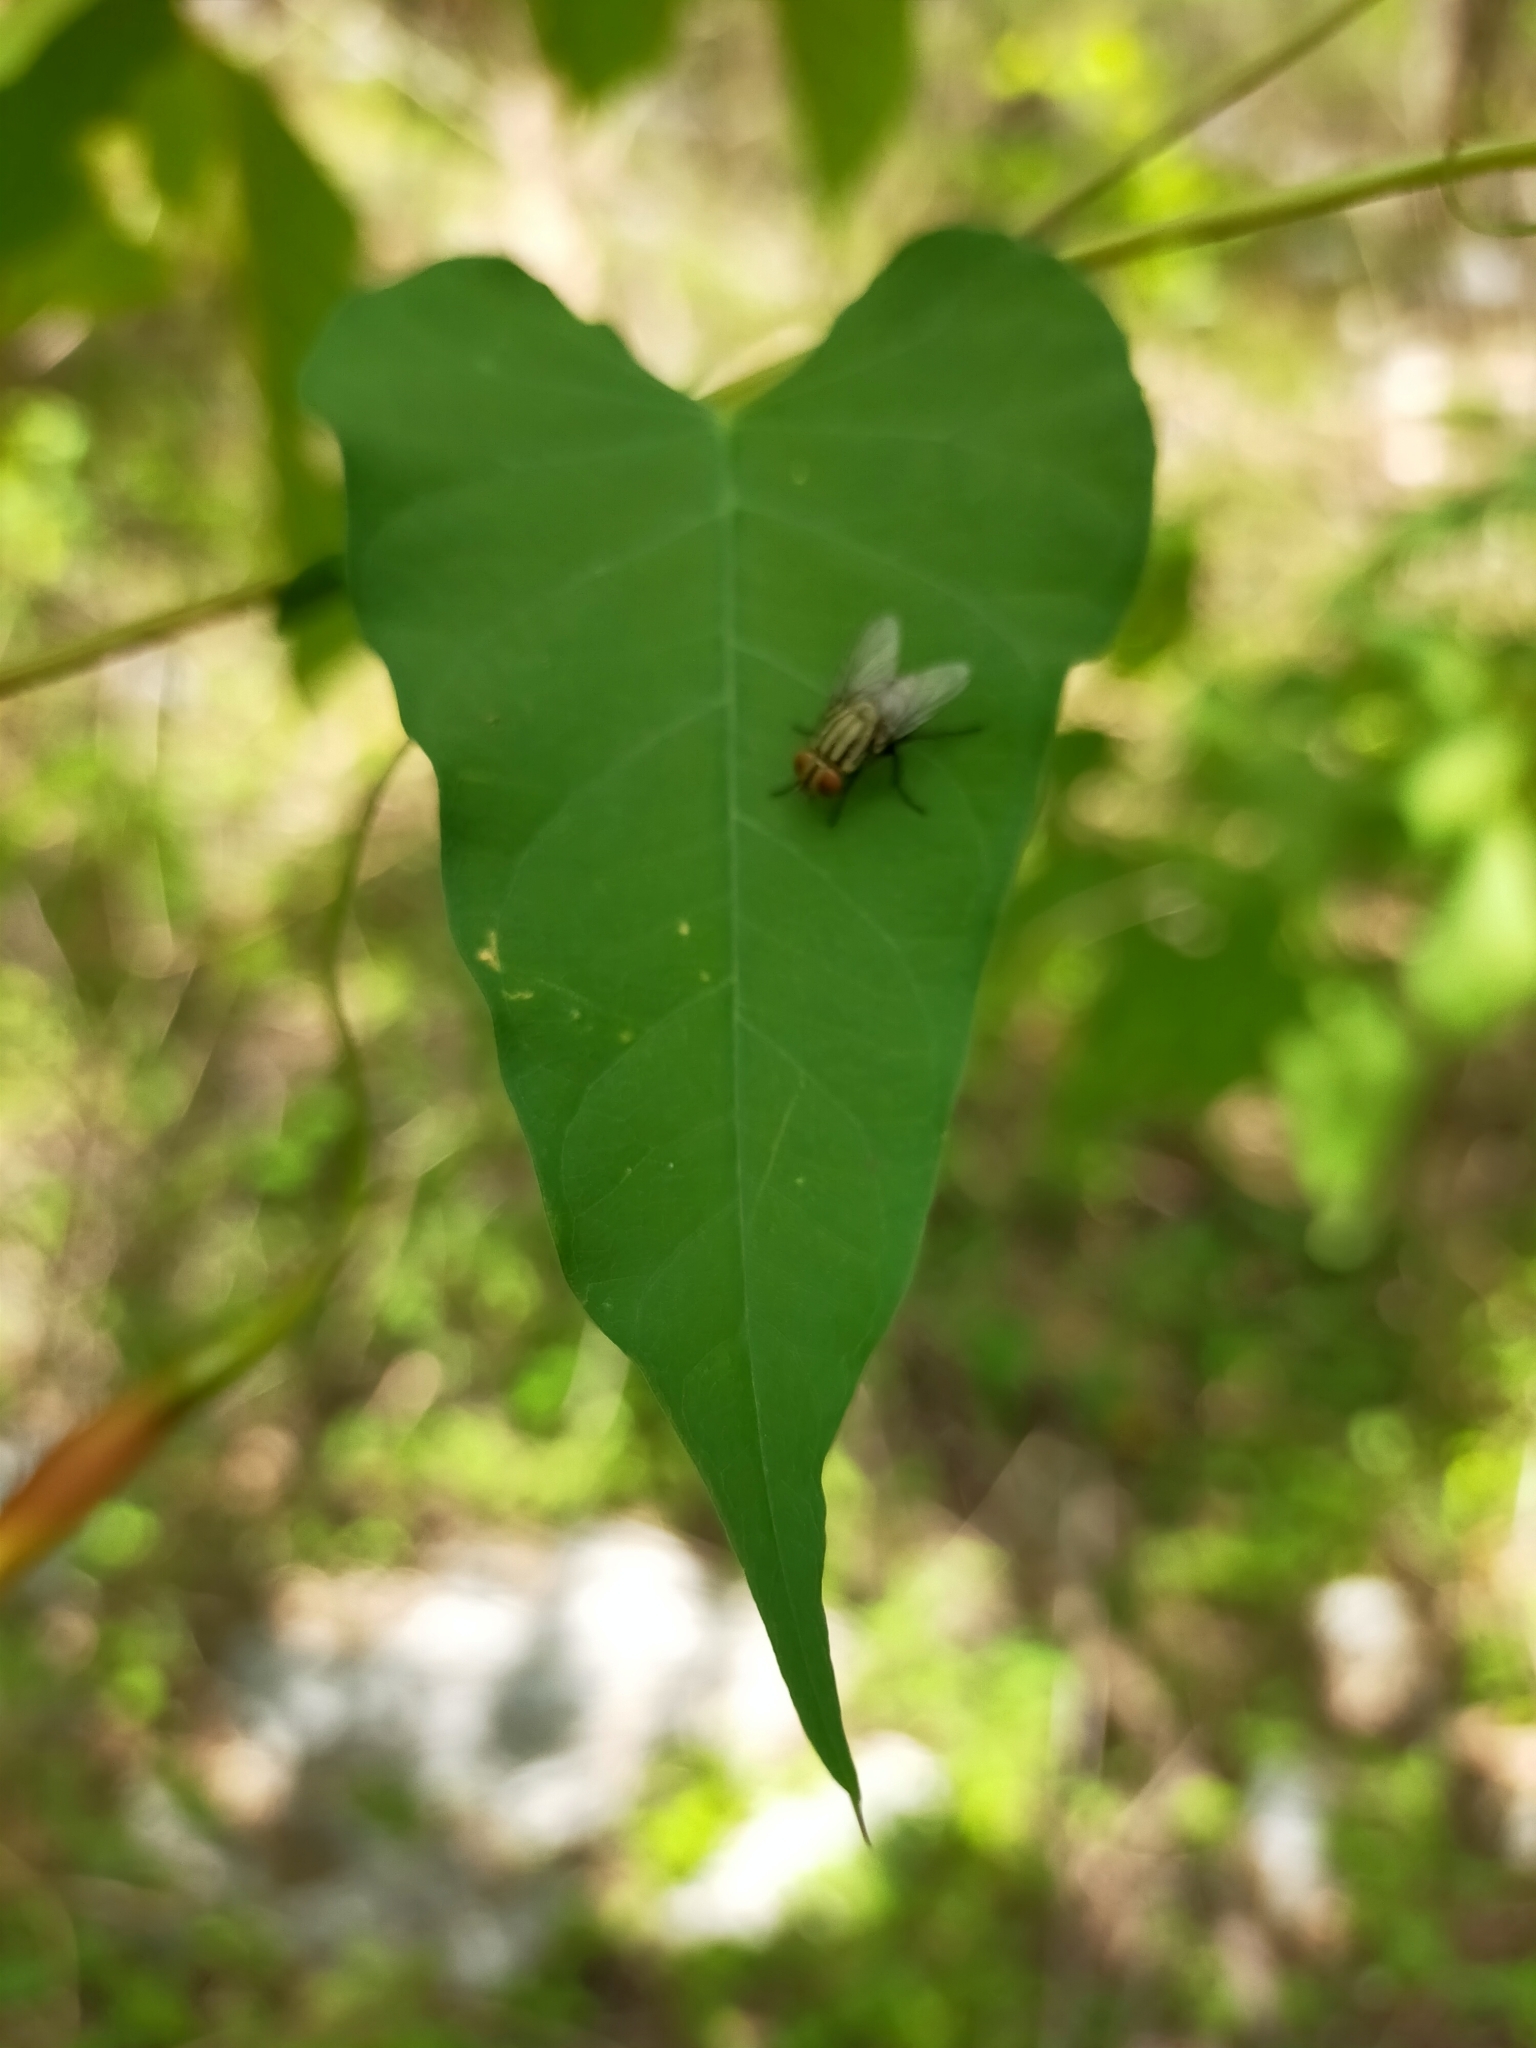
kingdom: Plantae
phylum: Tracheophyta
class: Magnoliopsida
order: Solanales
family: Convolvulaceae
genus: Operculina
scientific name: Operculina pteripes
